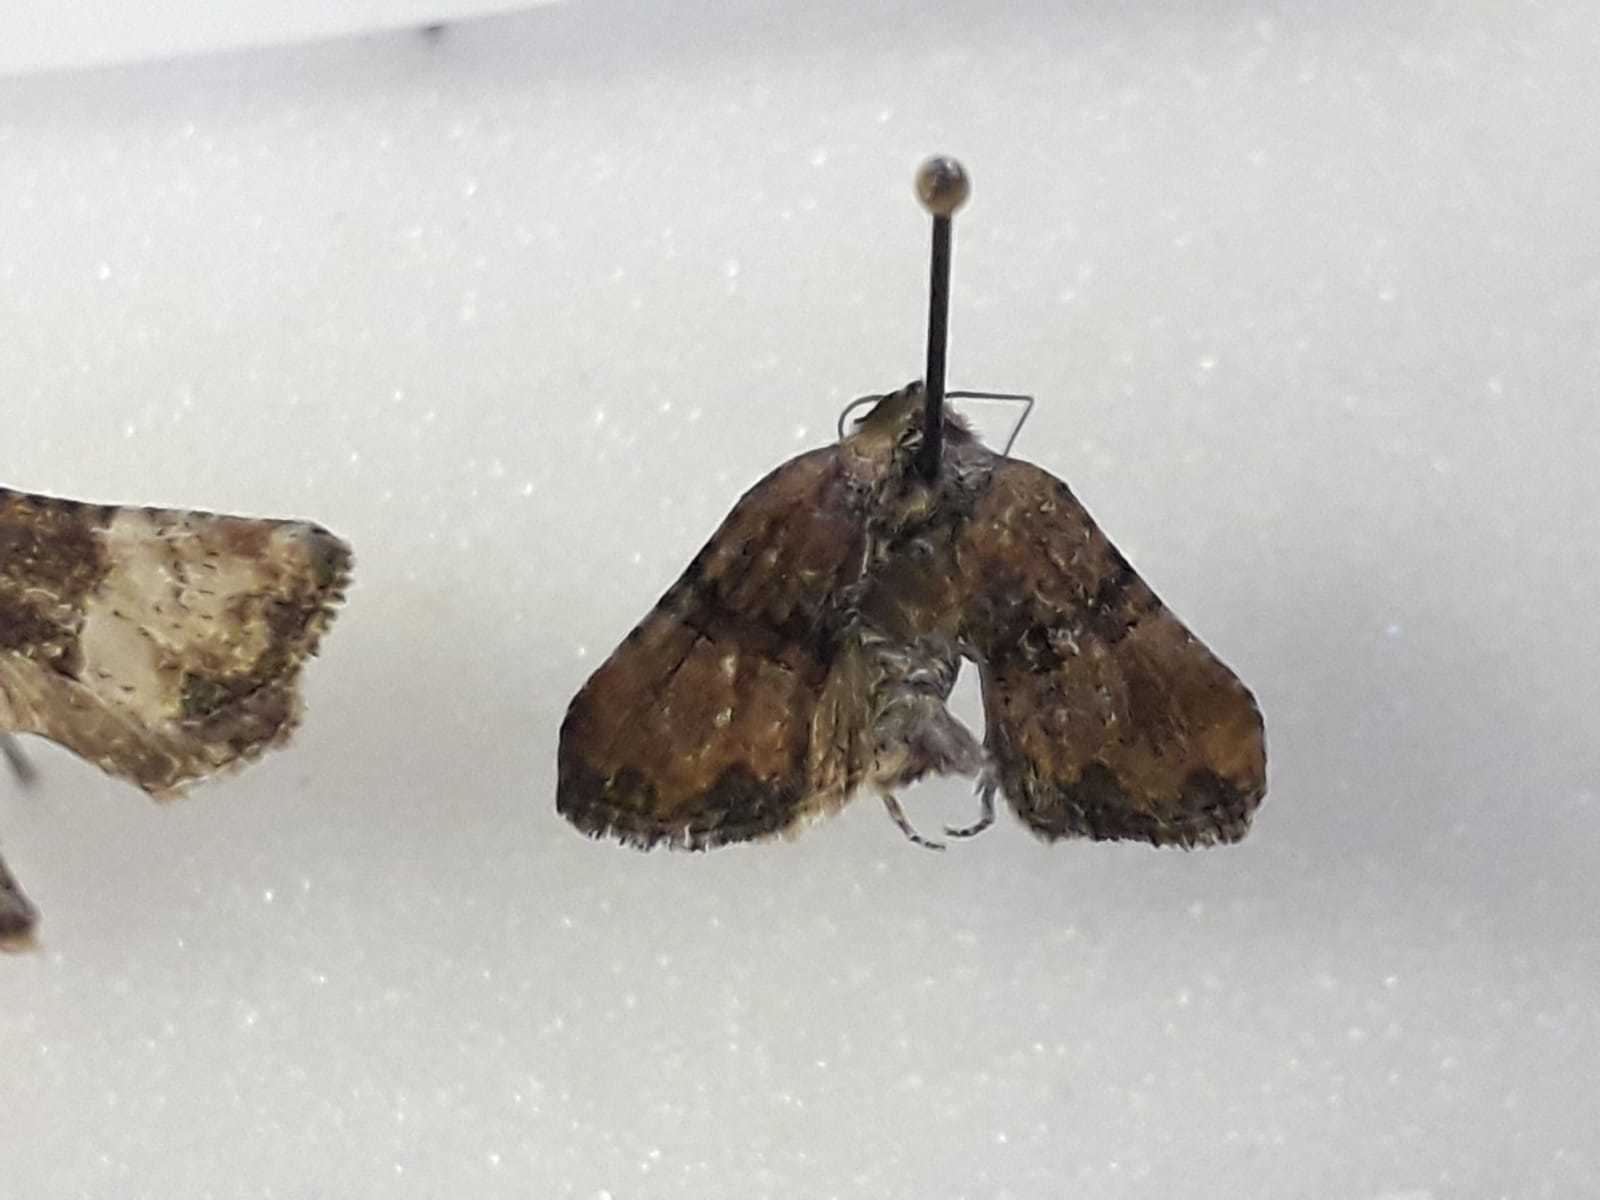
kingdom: Animalia
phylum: Arthropoda
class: Insecta
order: Lepidoptera
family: Noctuidae
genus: Mesoligia
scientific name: Mesoligia furuncula
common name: Cloaked minor
